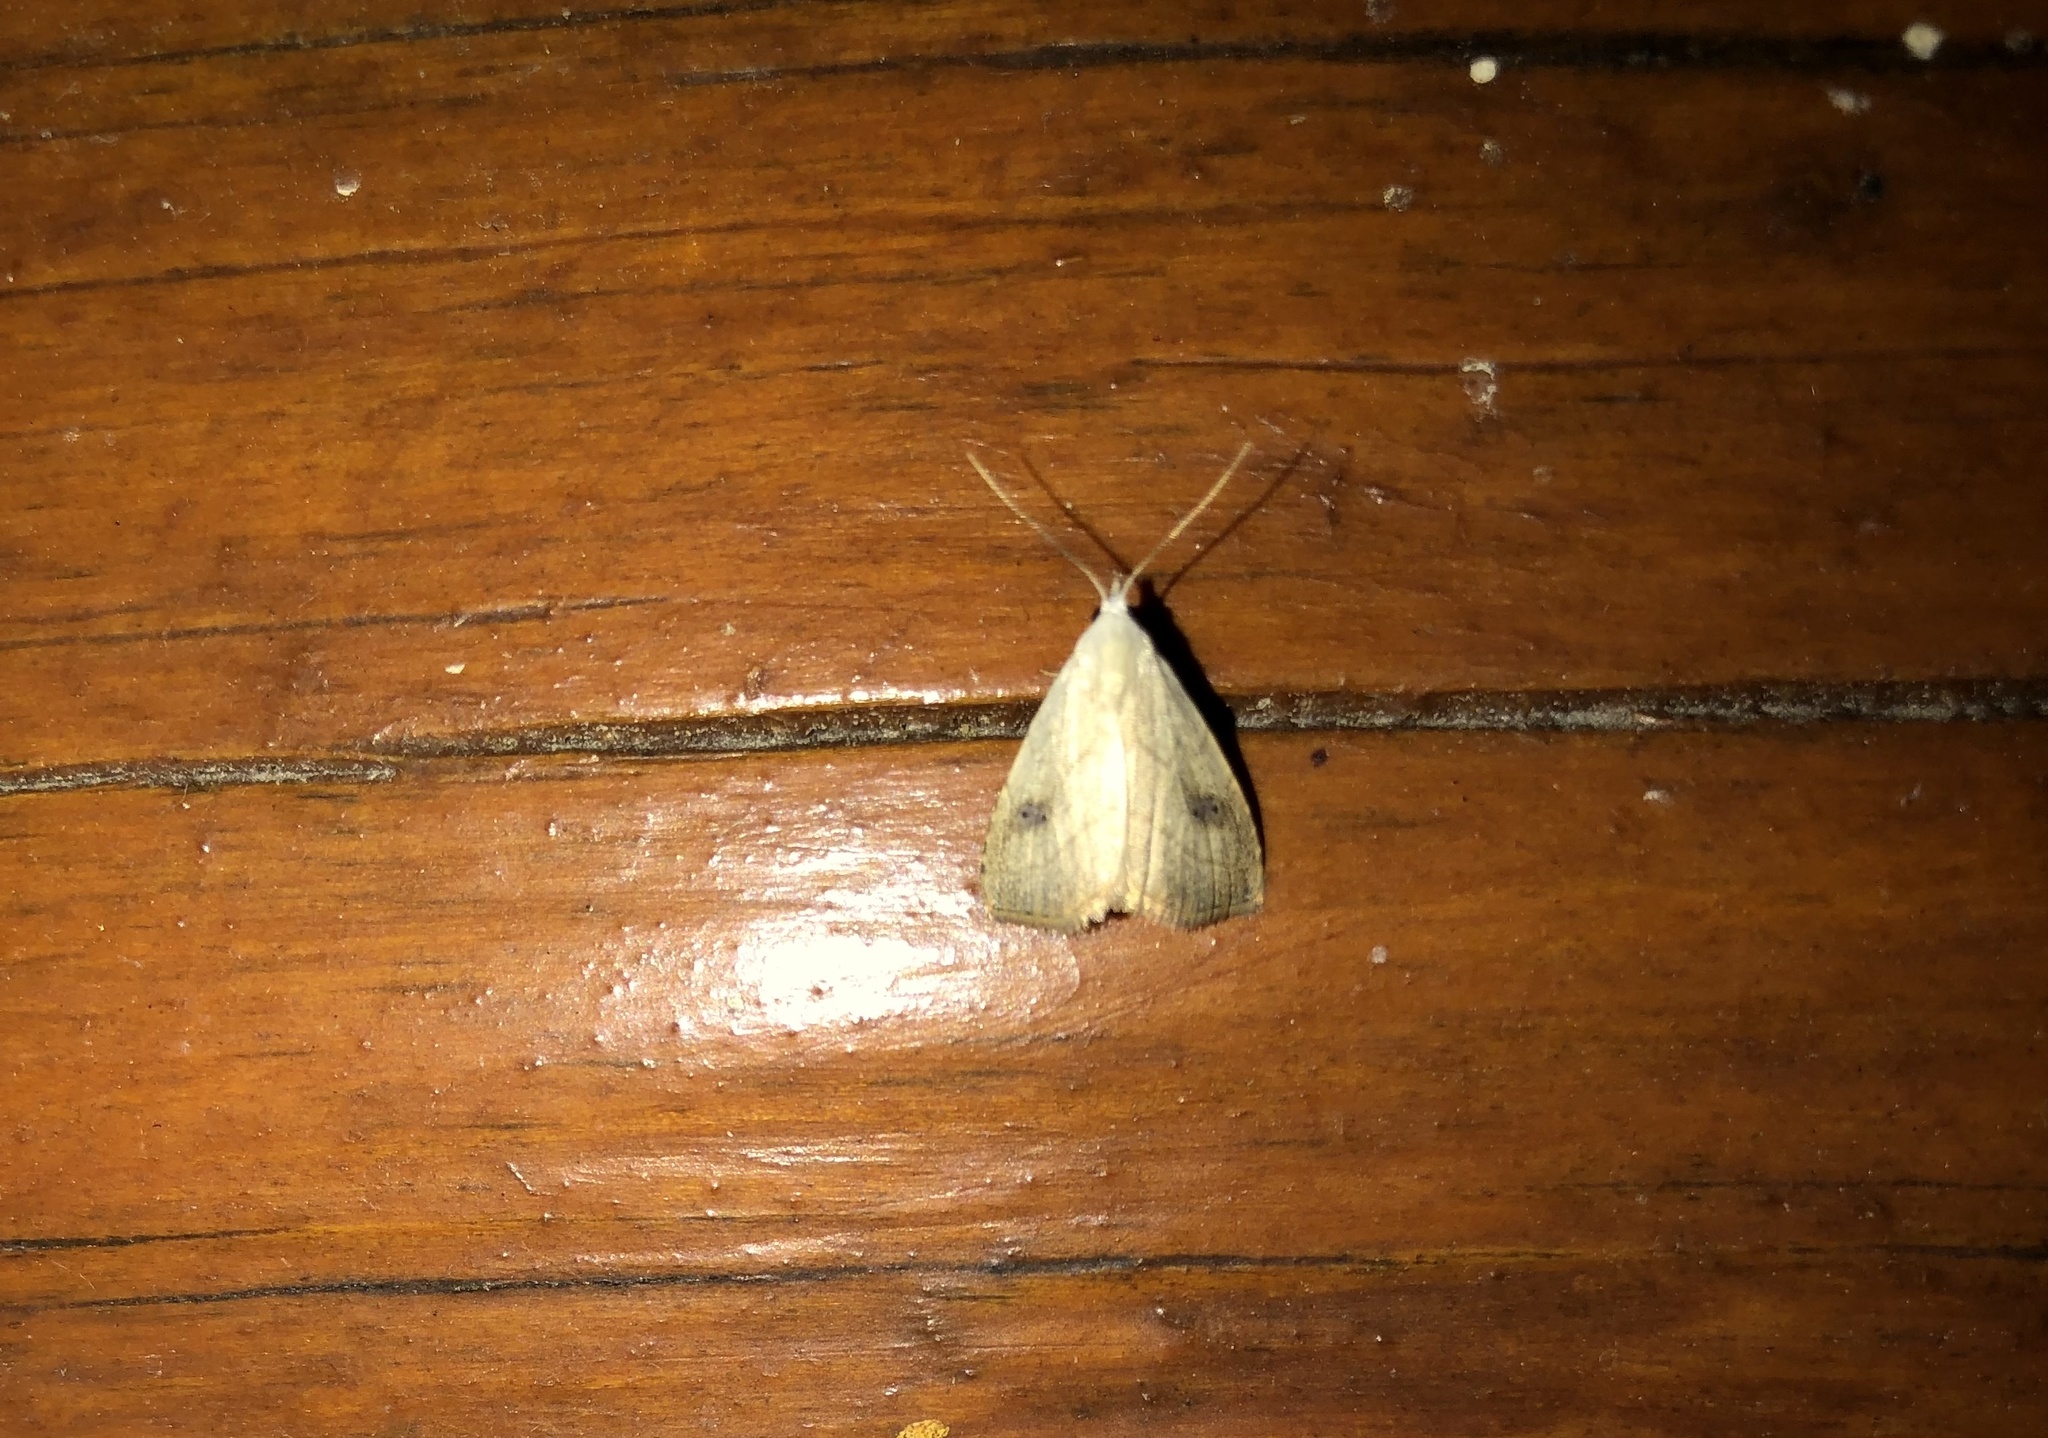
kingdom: Animalia
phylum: Arthropoda
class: Insecta
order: Lepidoptera
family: Erebidae
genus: Rivula
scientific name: Rivula propinqualis
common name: Spotted grass moth
